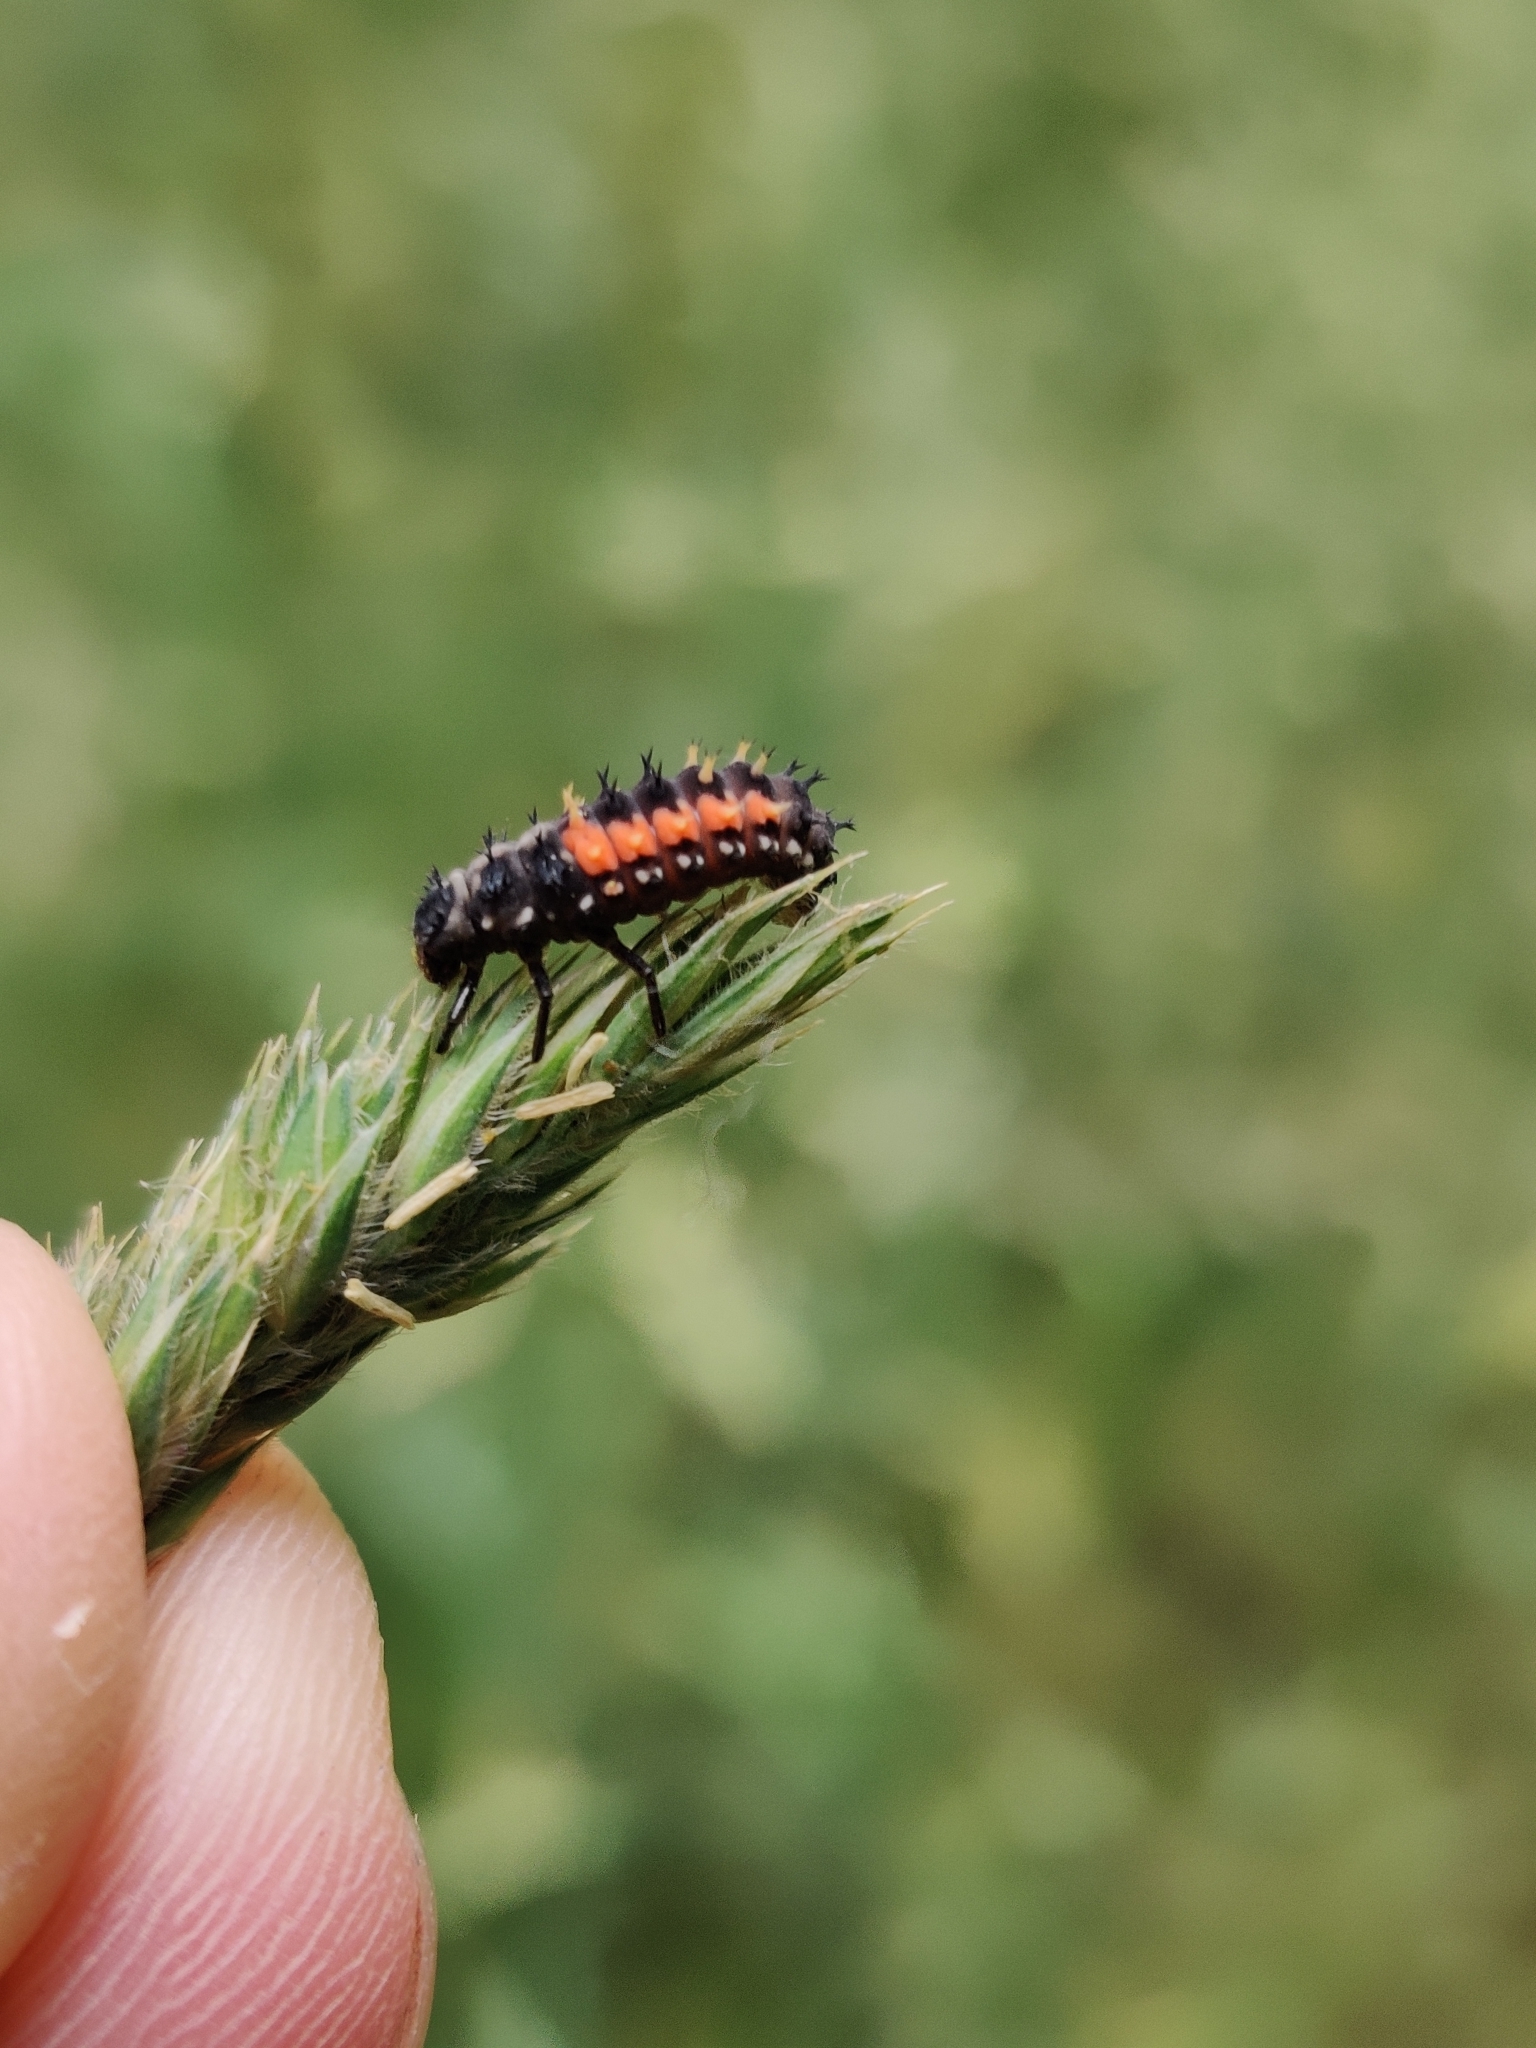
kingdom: Animalia
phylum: Arthropoda
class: Insecta
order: Coleoptera
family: Coccinellidae
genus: Harmonia
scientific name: Harmonia axyridis
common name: Harlequin ladybird
